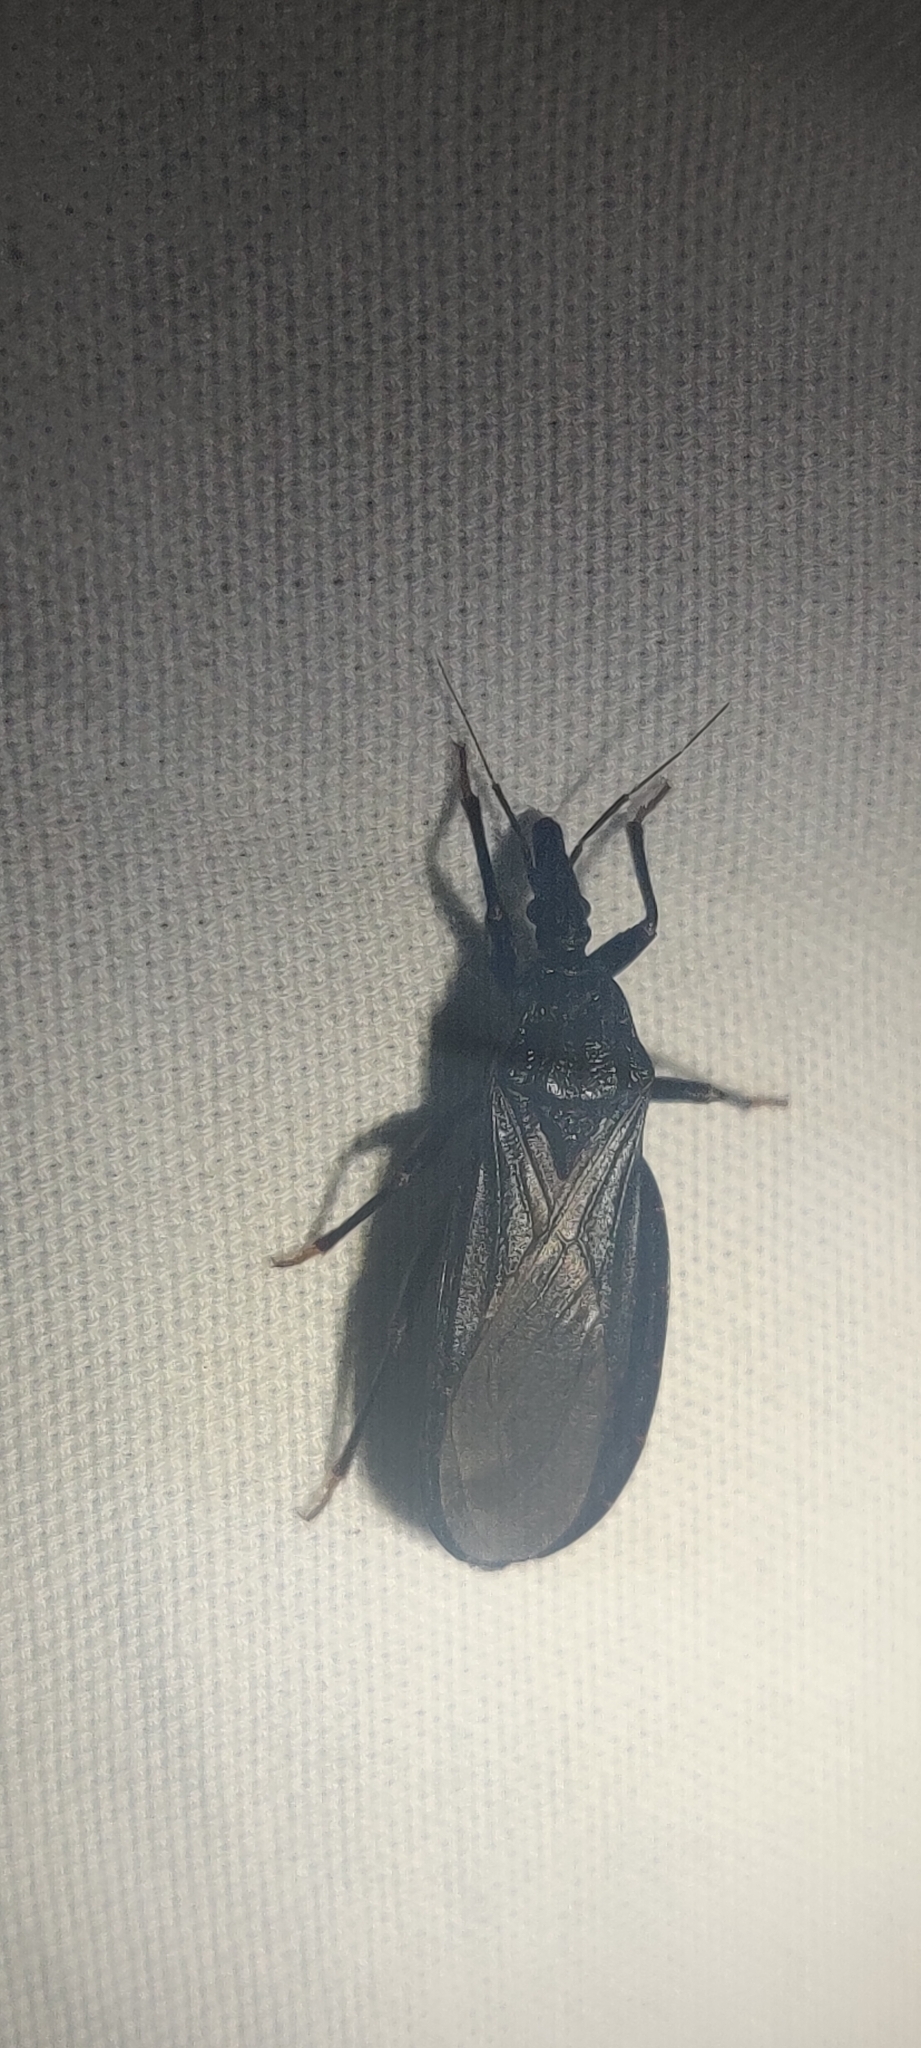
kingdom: Animalia
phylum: Arthropoda
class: Insecta
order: Hemiptera
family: Reduviidae
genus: Triatoma
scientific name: Triatoma protracta
